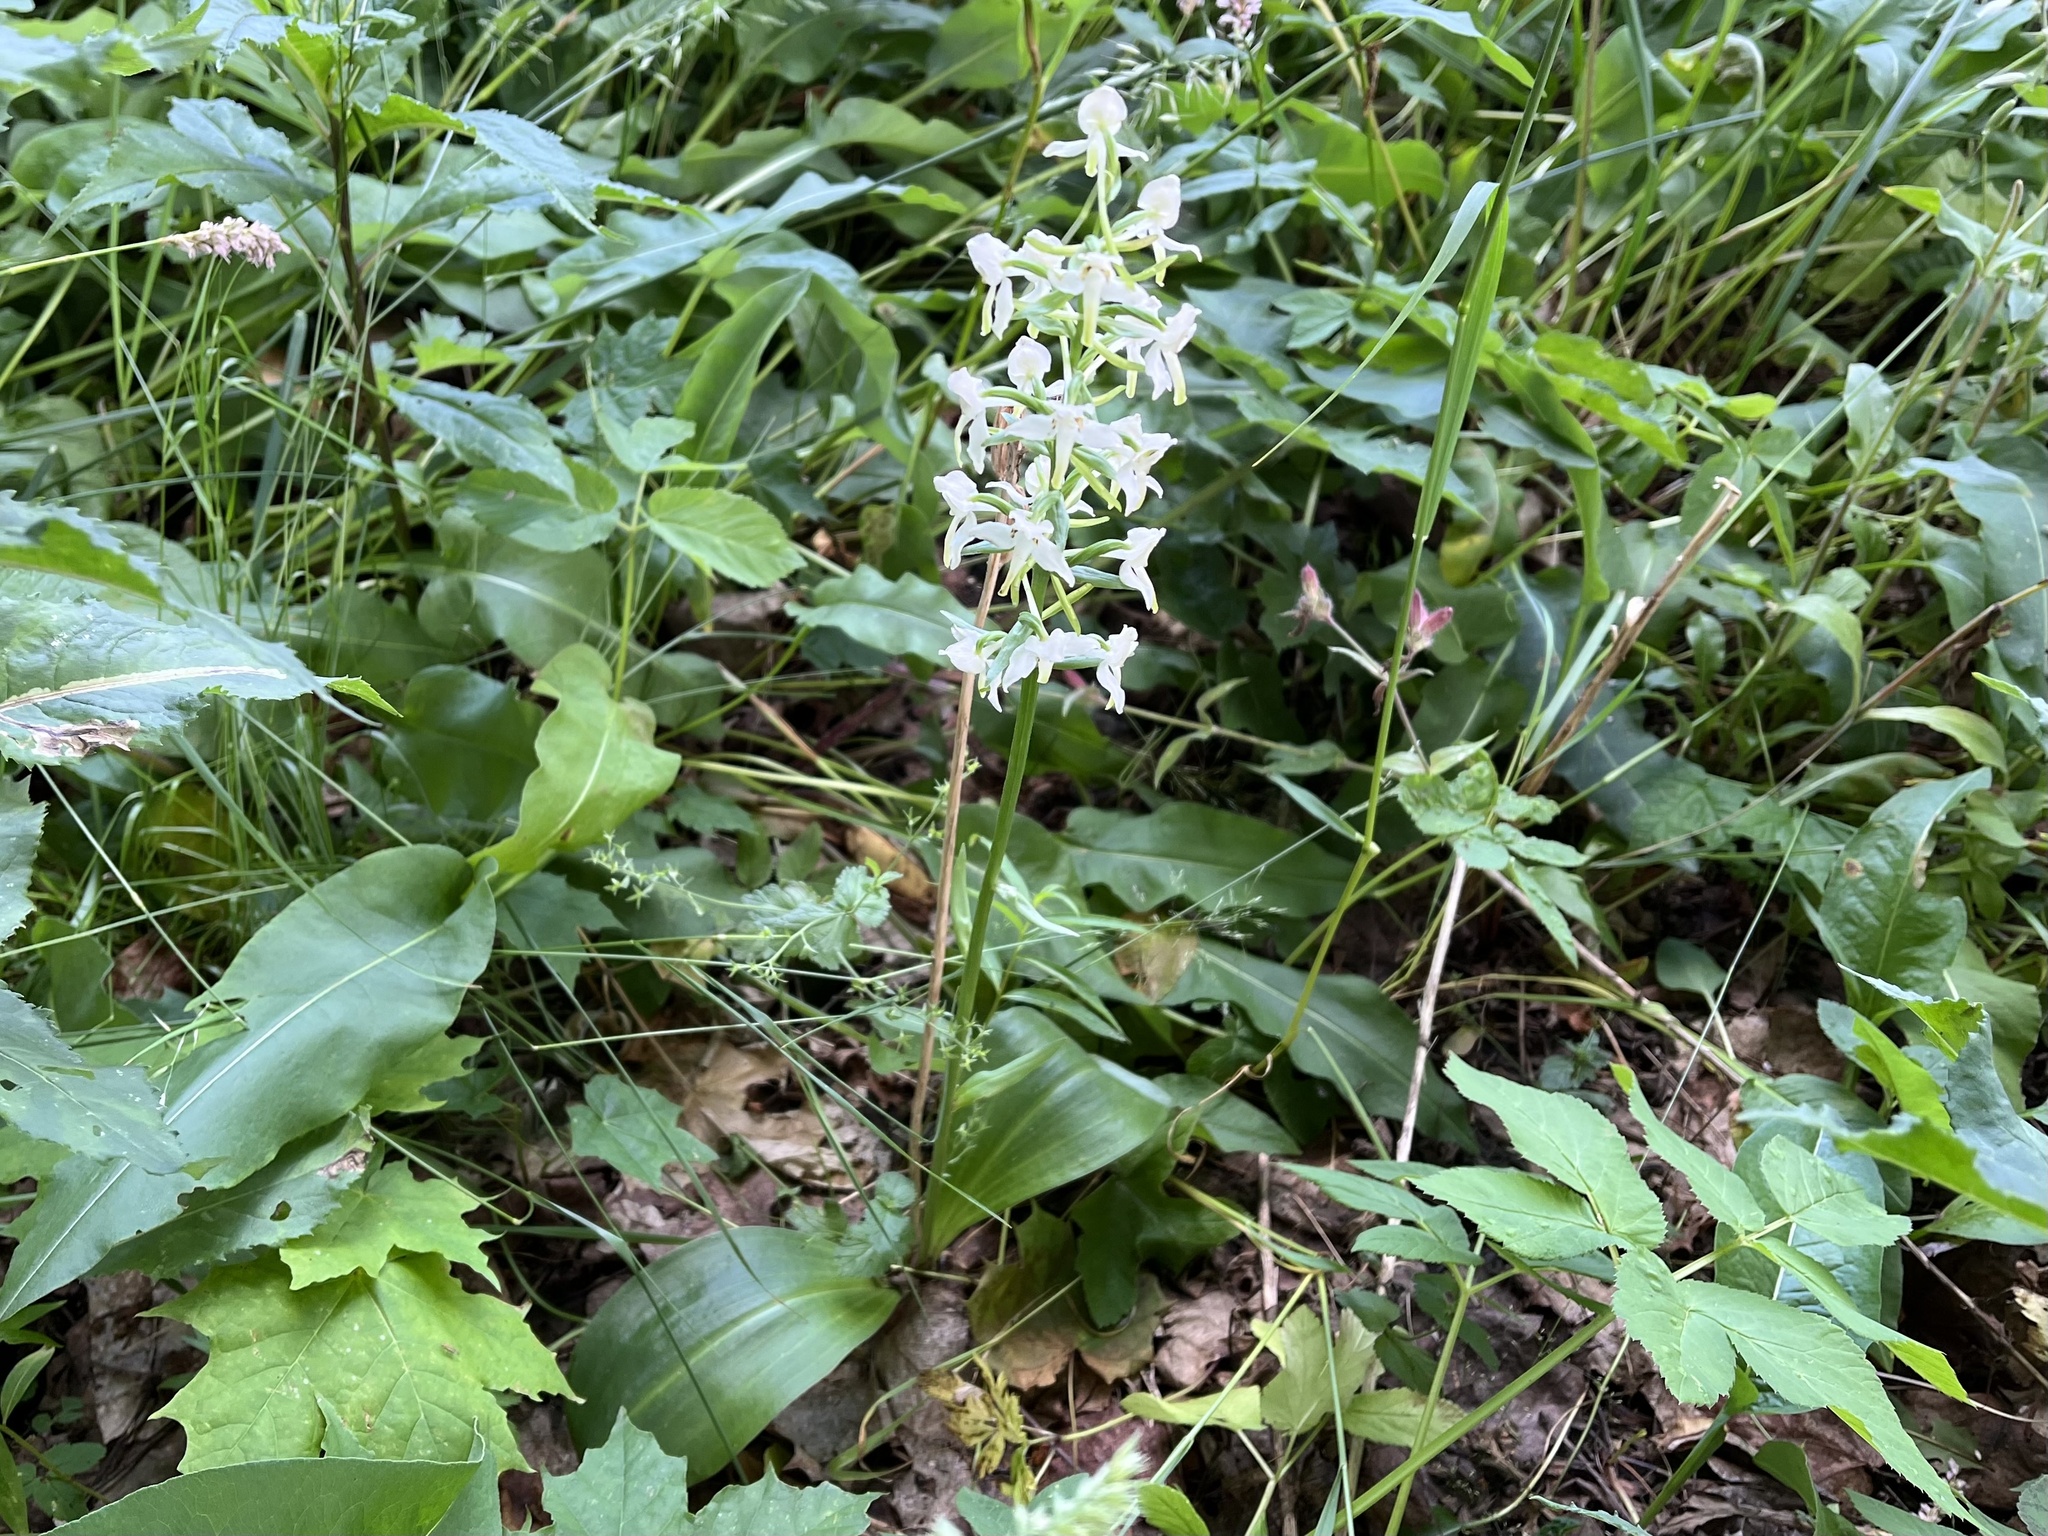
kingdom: Plantae
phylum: Tracheophyta
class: Liliopsida
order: Asparagales
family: Orchidaceae
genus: Platanthera
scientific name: Platanthera chlorantha
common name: Greater butterfly-orchid
